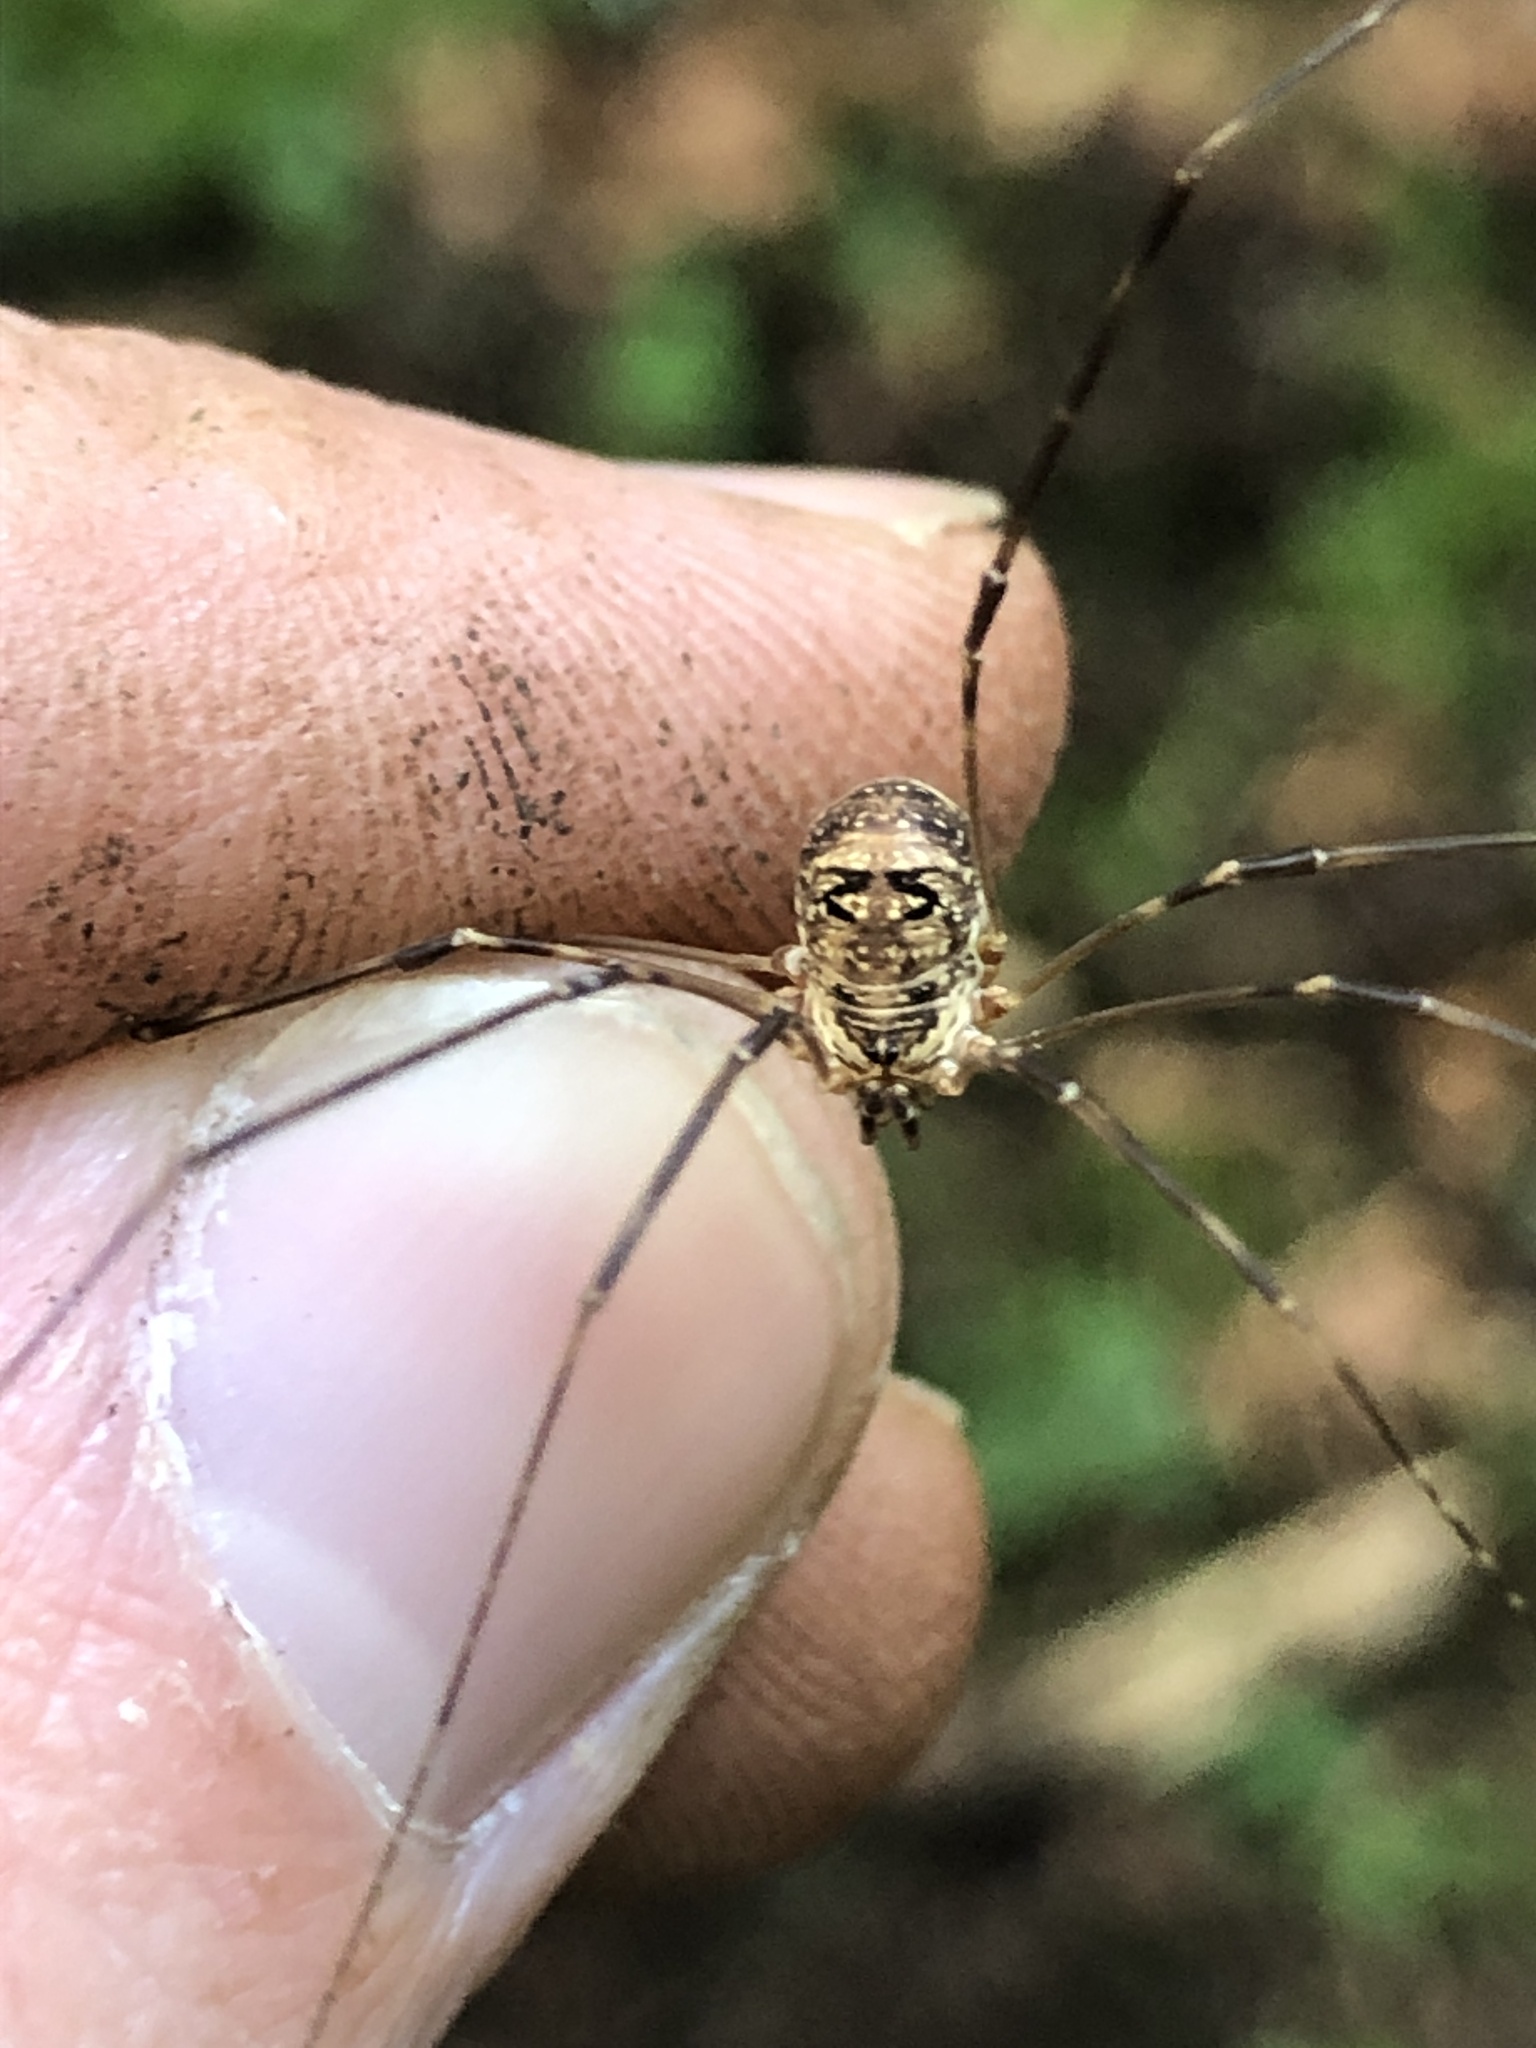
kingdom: Animalia
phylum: Arthropoda
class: Arachnida
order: Opiliones
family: Phalangiidae
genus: Amilenus
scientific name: Amilenus aurantiacus
